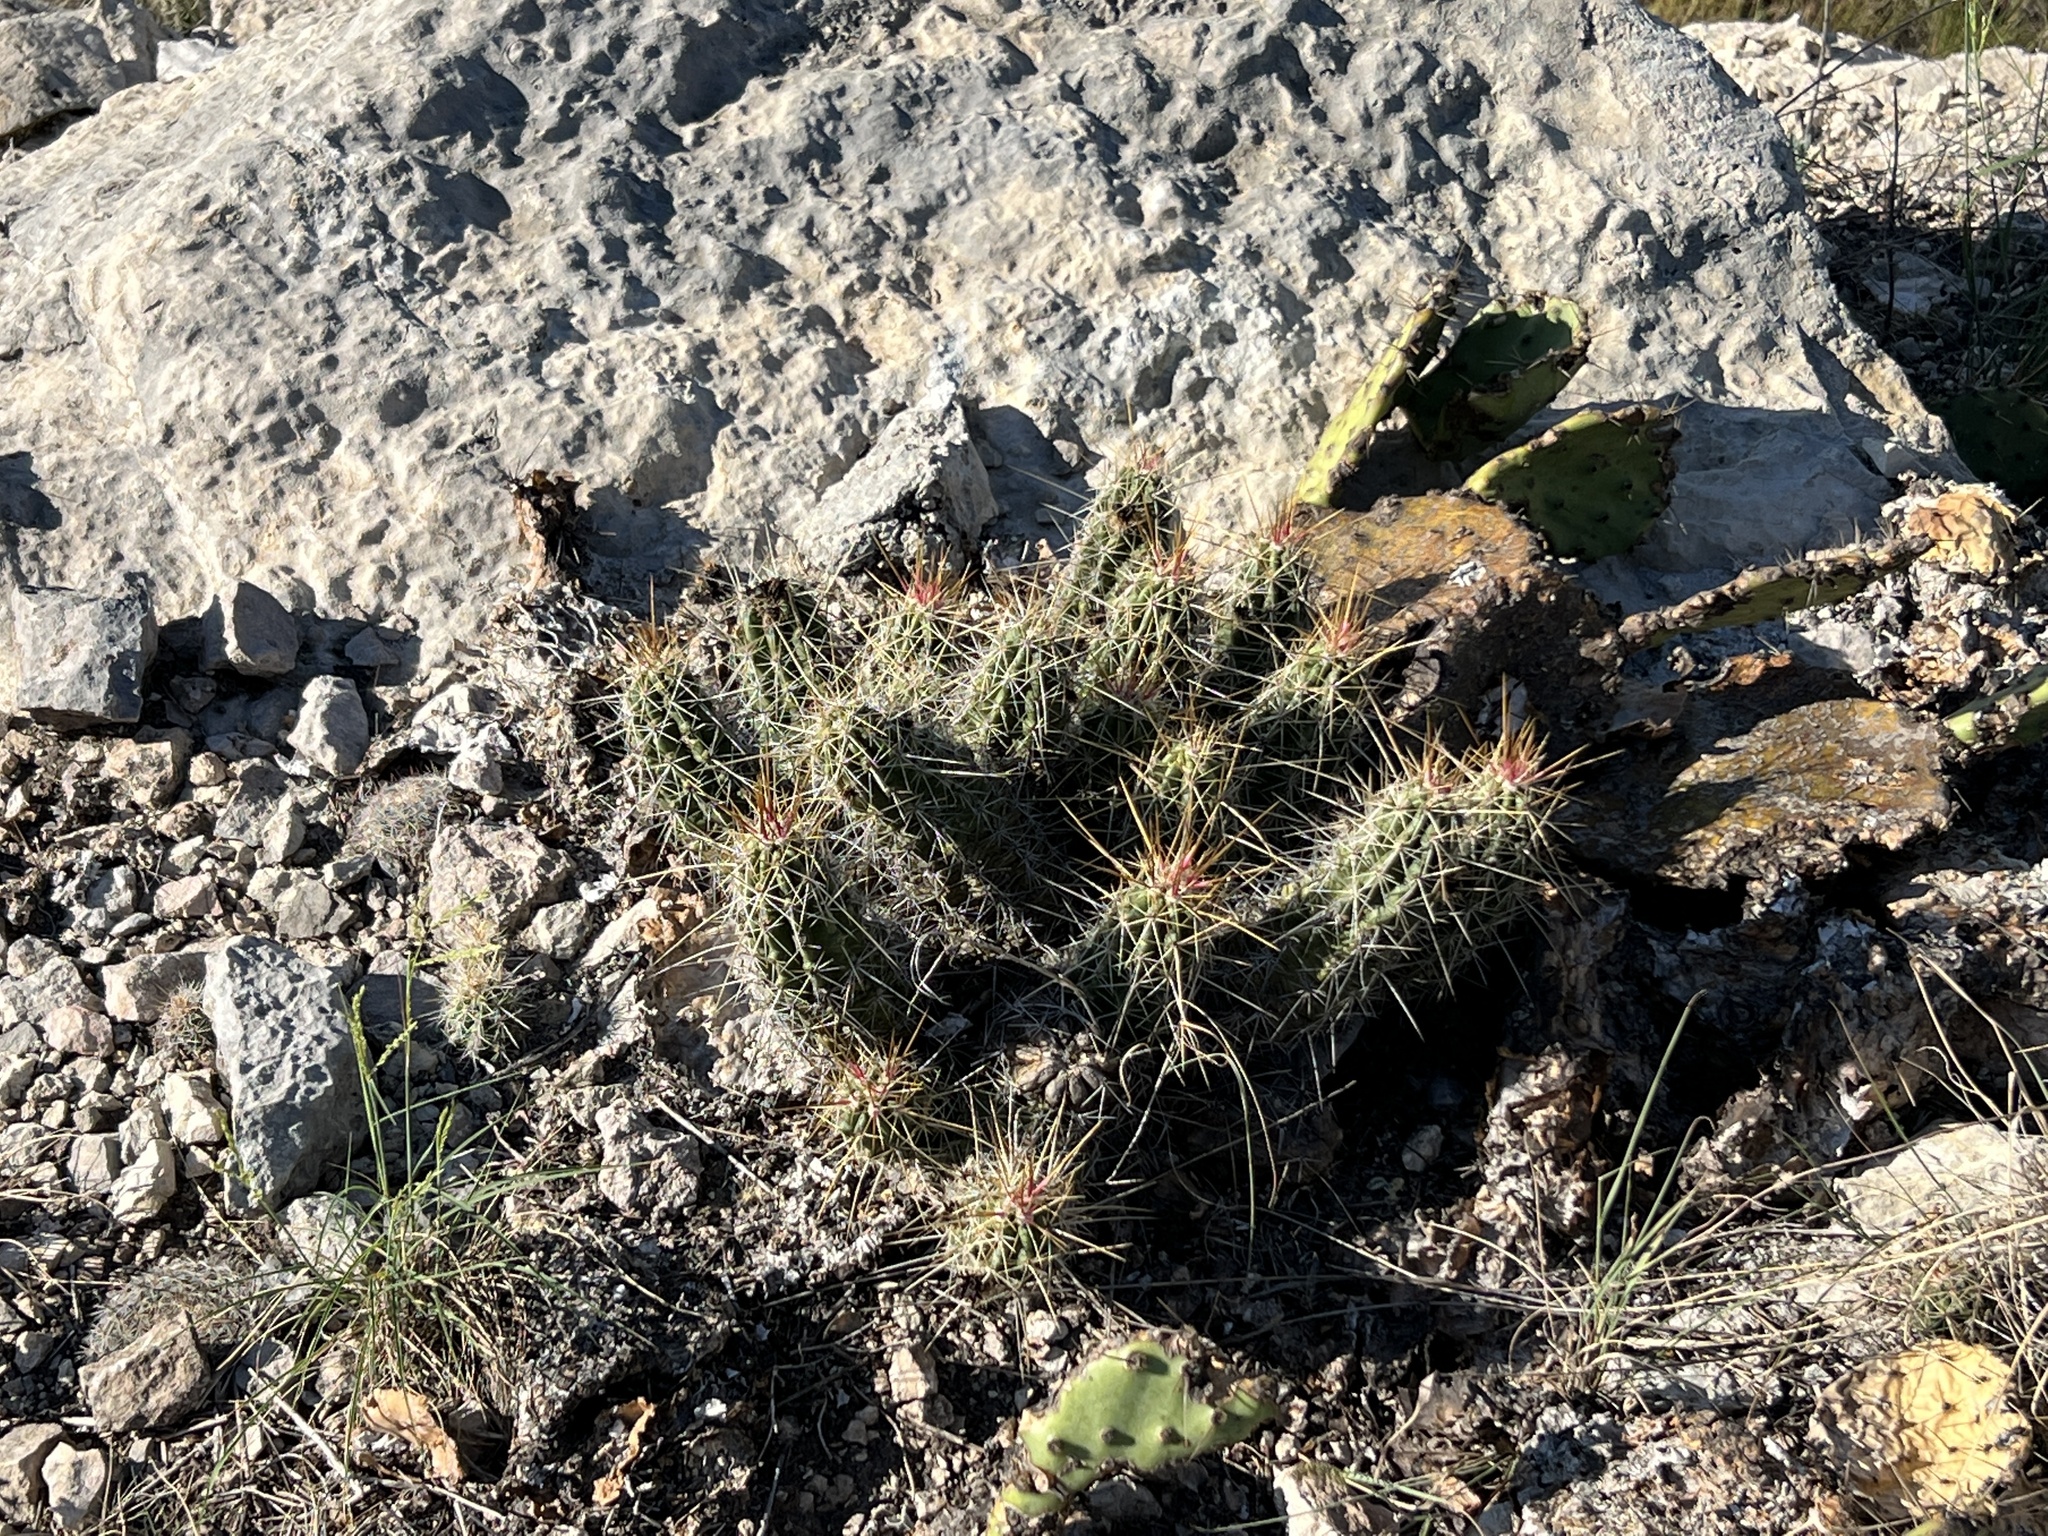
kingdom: Plantae
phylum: Tracheophyta
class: Magnoliopsida
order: Caryophyllales
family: Cactaceae
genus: Echinocereus
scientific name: Echinocereus enneacanthus
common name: Pitaya
